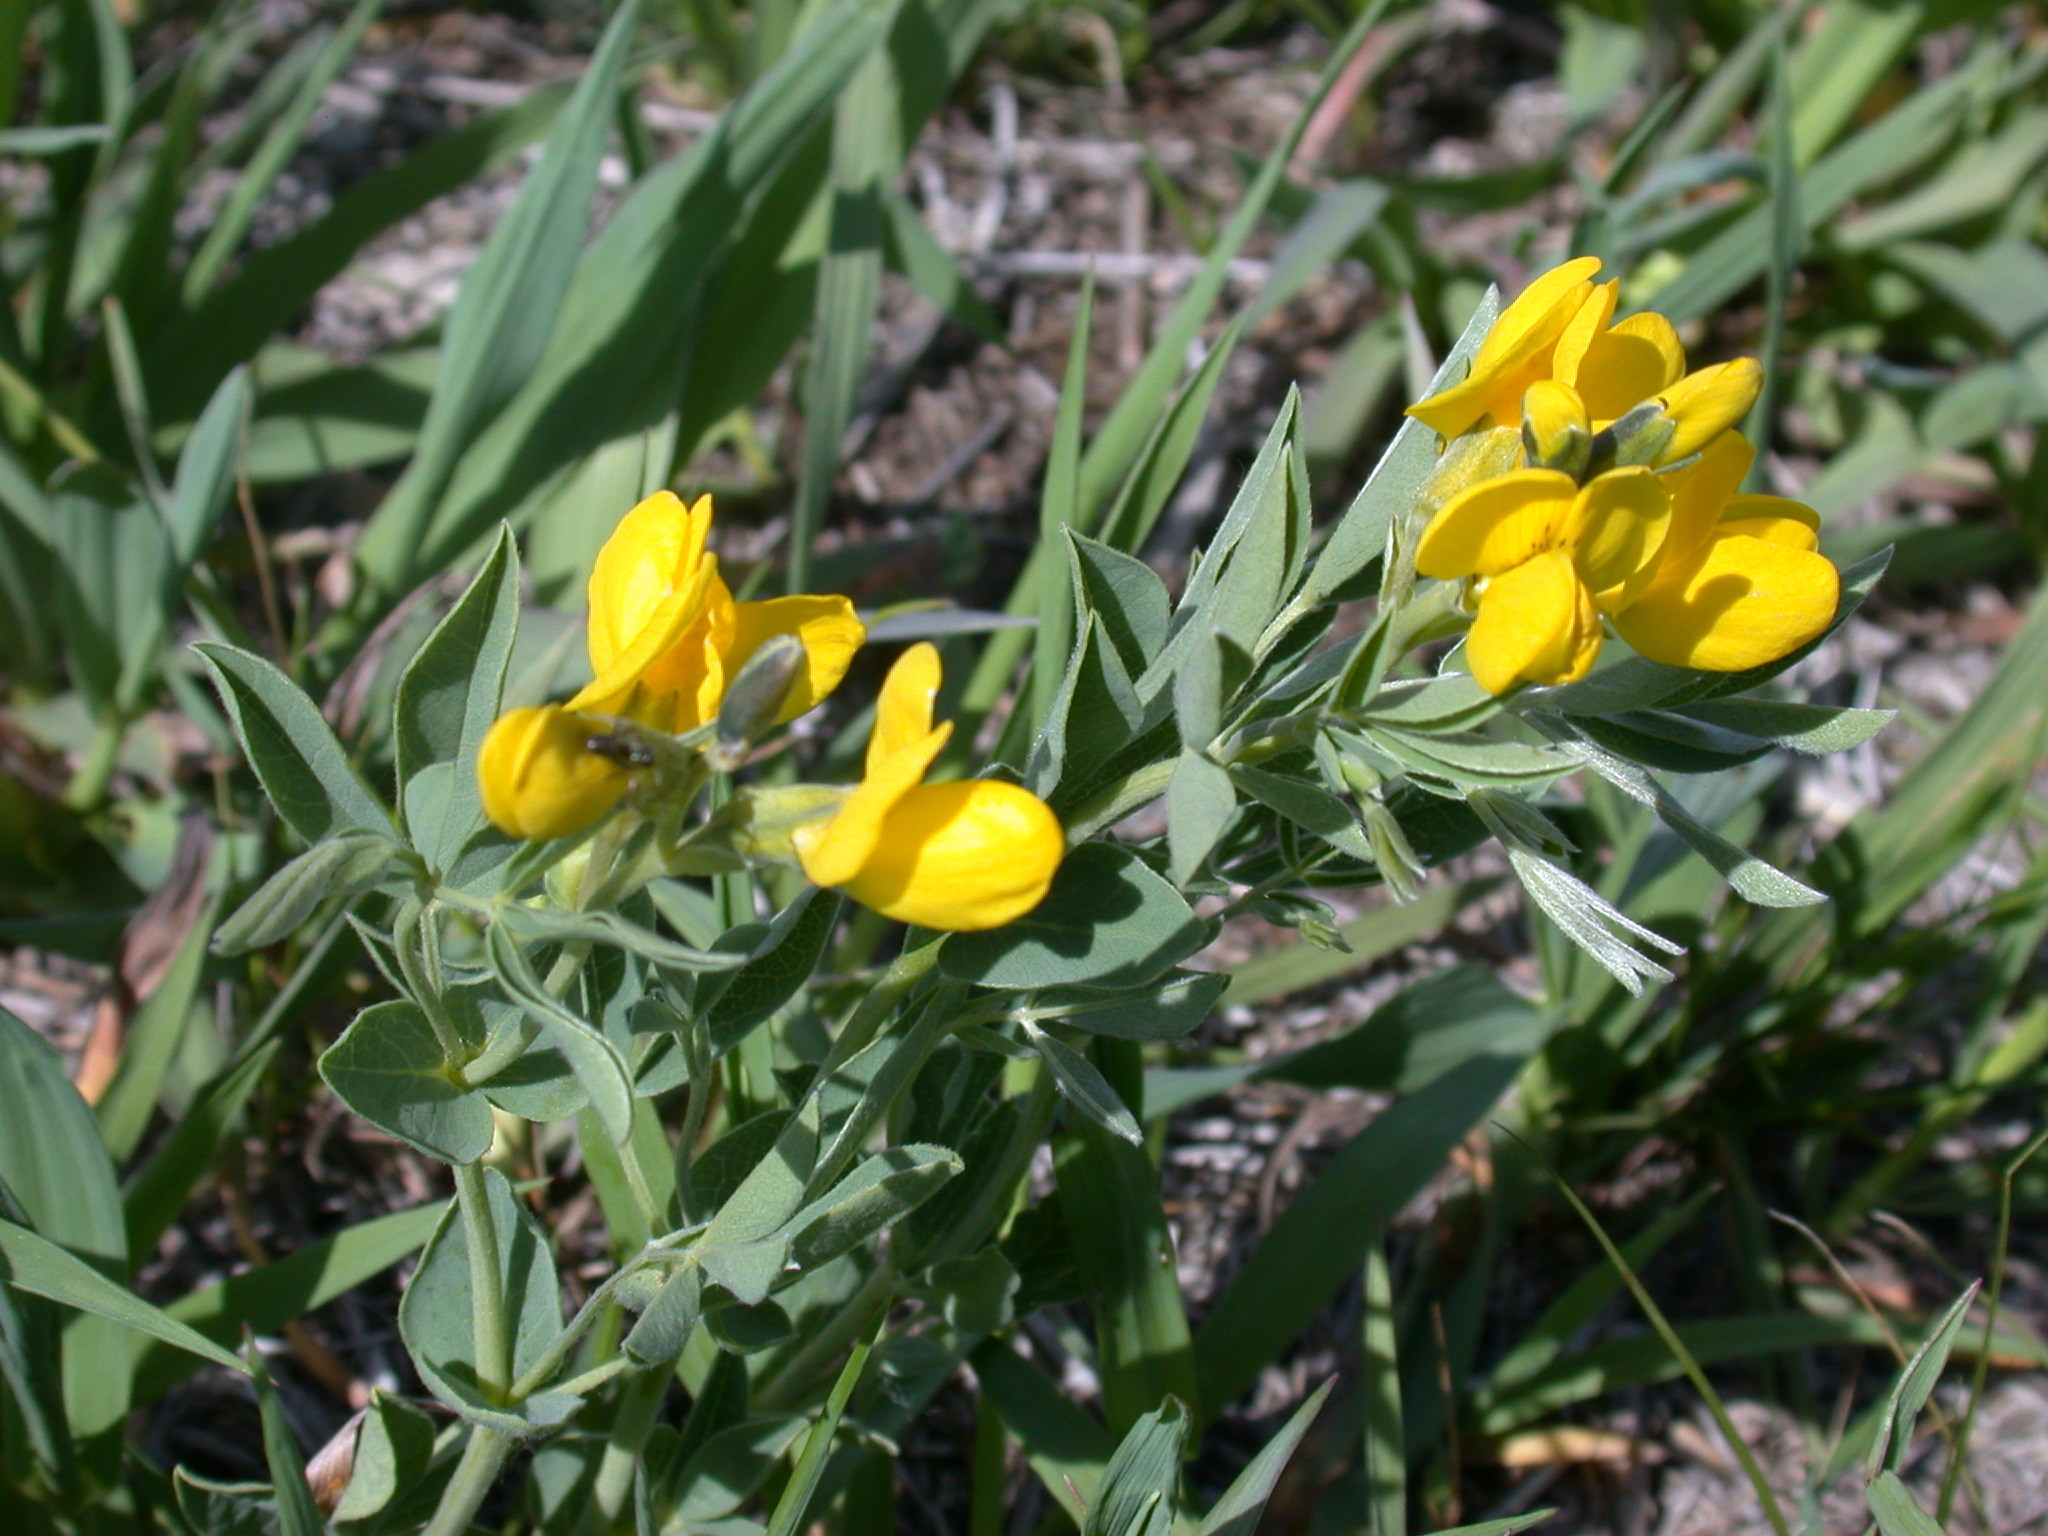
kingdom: Plantae
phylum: Tracheophyta
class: Magnoliopsida
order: Fabales
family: Fabaceae
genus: Thermopsis
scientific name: Thermopsis rhombifolia
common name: Circle-pod-pea
